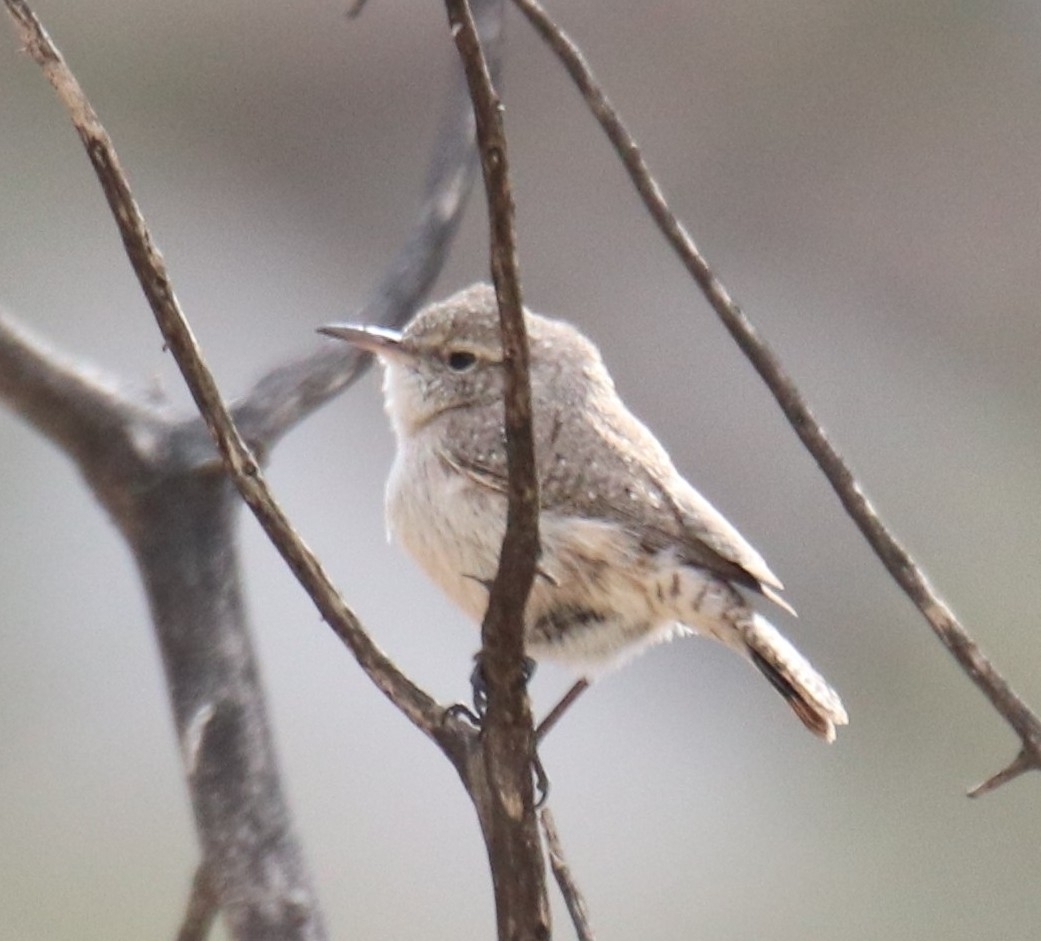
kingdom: Animalia
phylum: Chordata
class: Aves
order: Passeriformes
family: Troglodytidae
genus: Salpinctes
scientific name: Salpinctes obsoletus
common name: Rock wren
